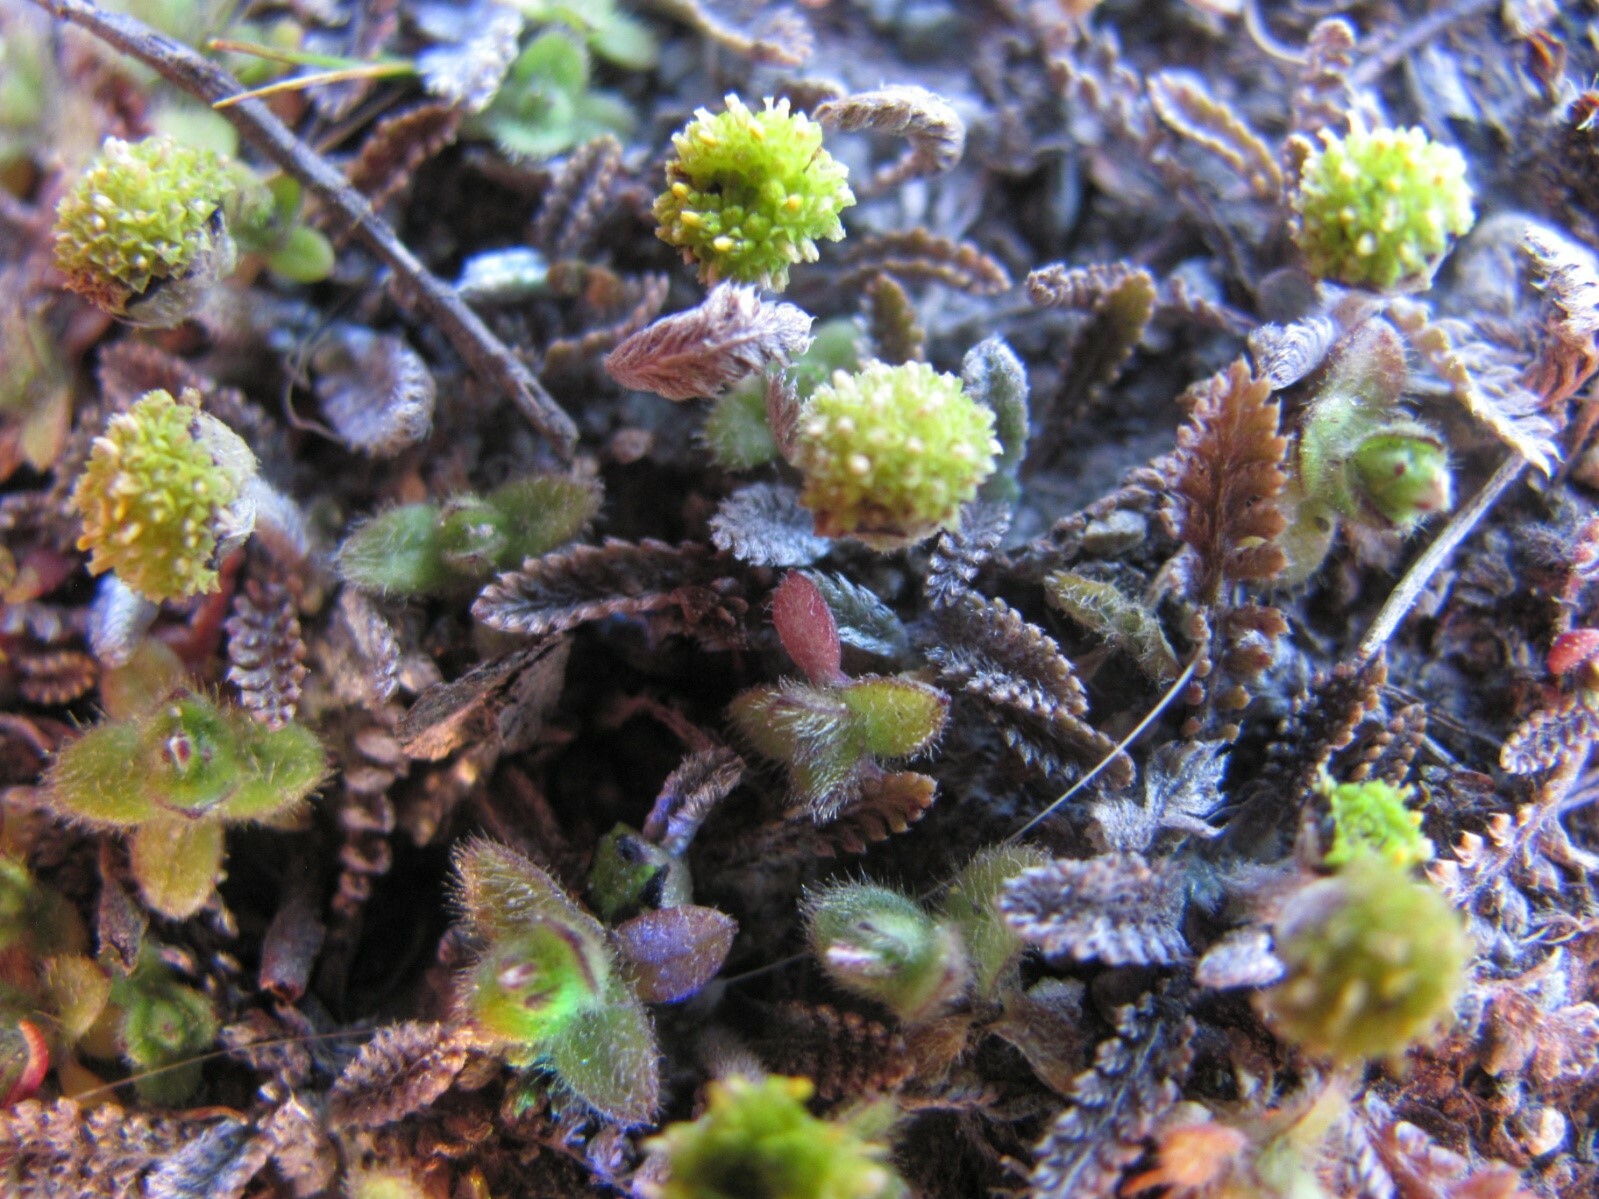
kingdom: Plantae
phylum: Tracheophyta
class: Magnoliopsida
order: Asterales
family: Asteraceae
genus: Leptinella
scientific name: Leptinella serrulata
